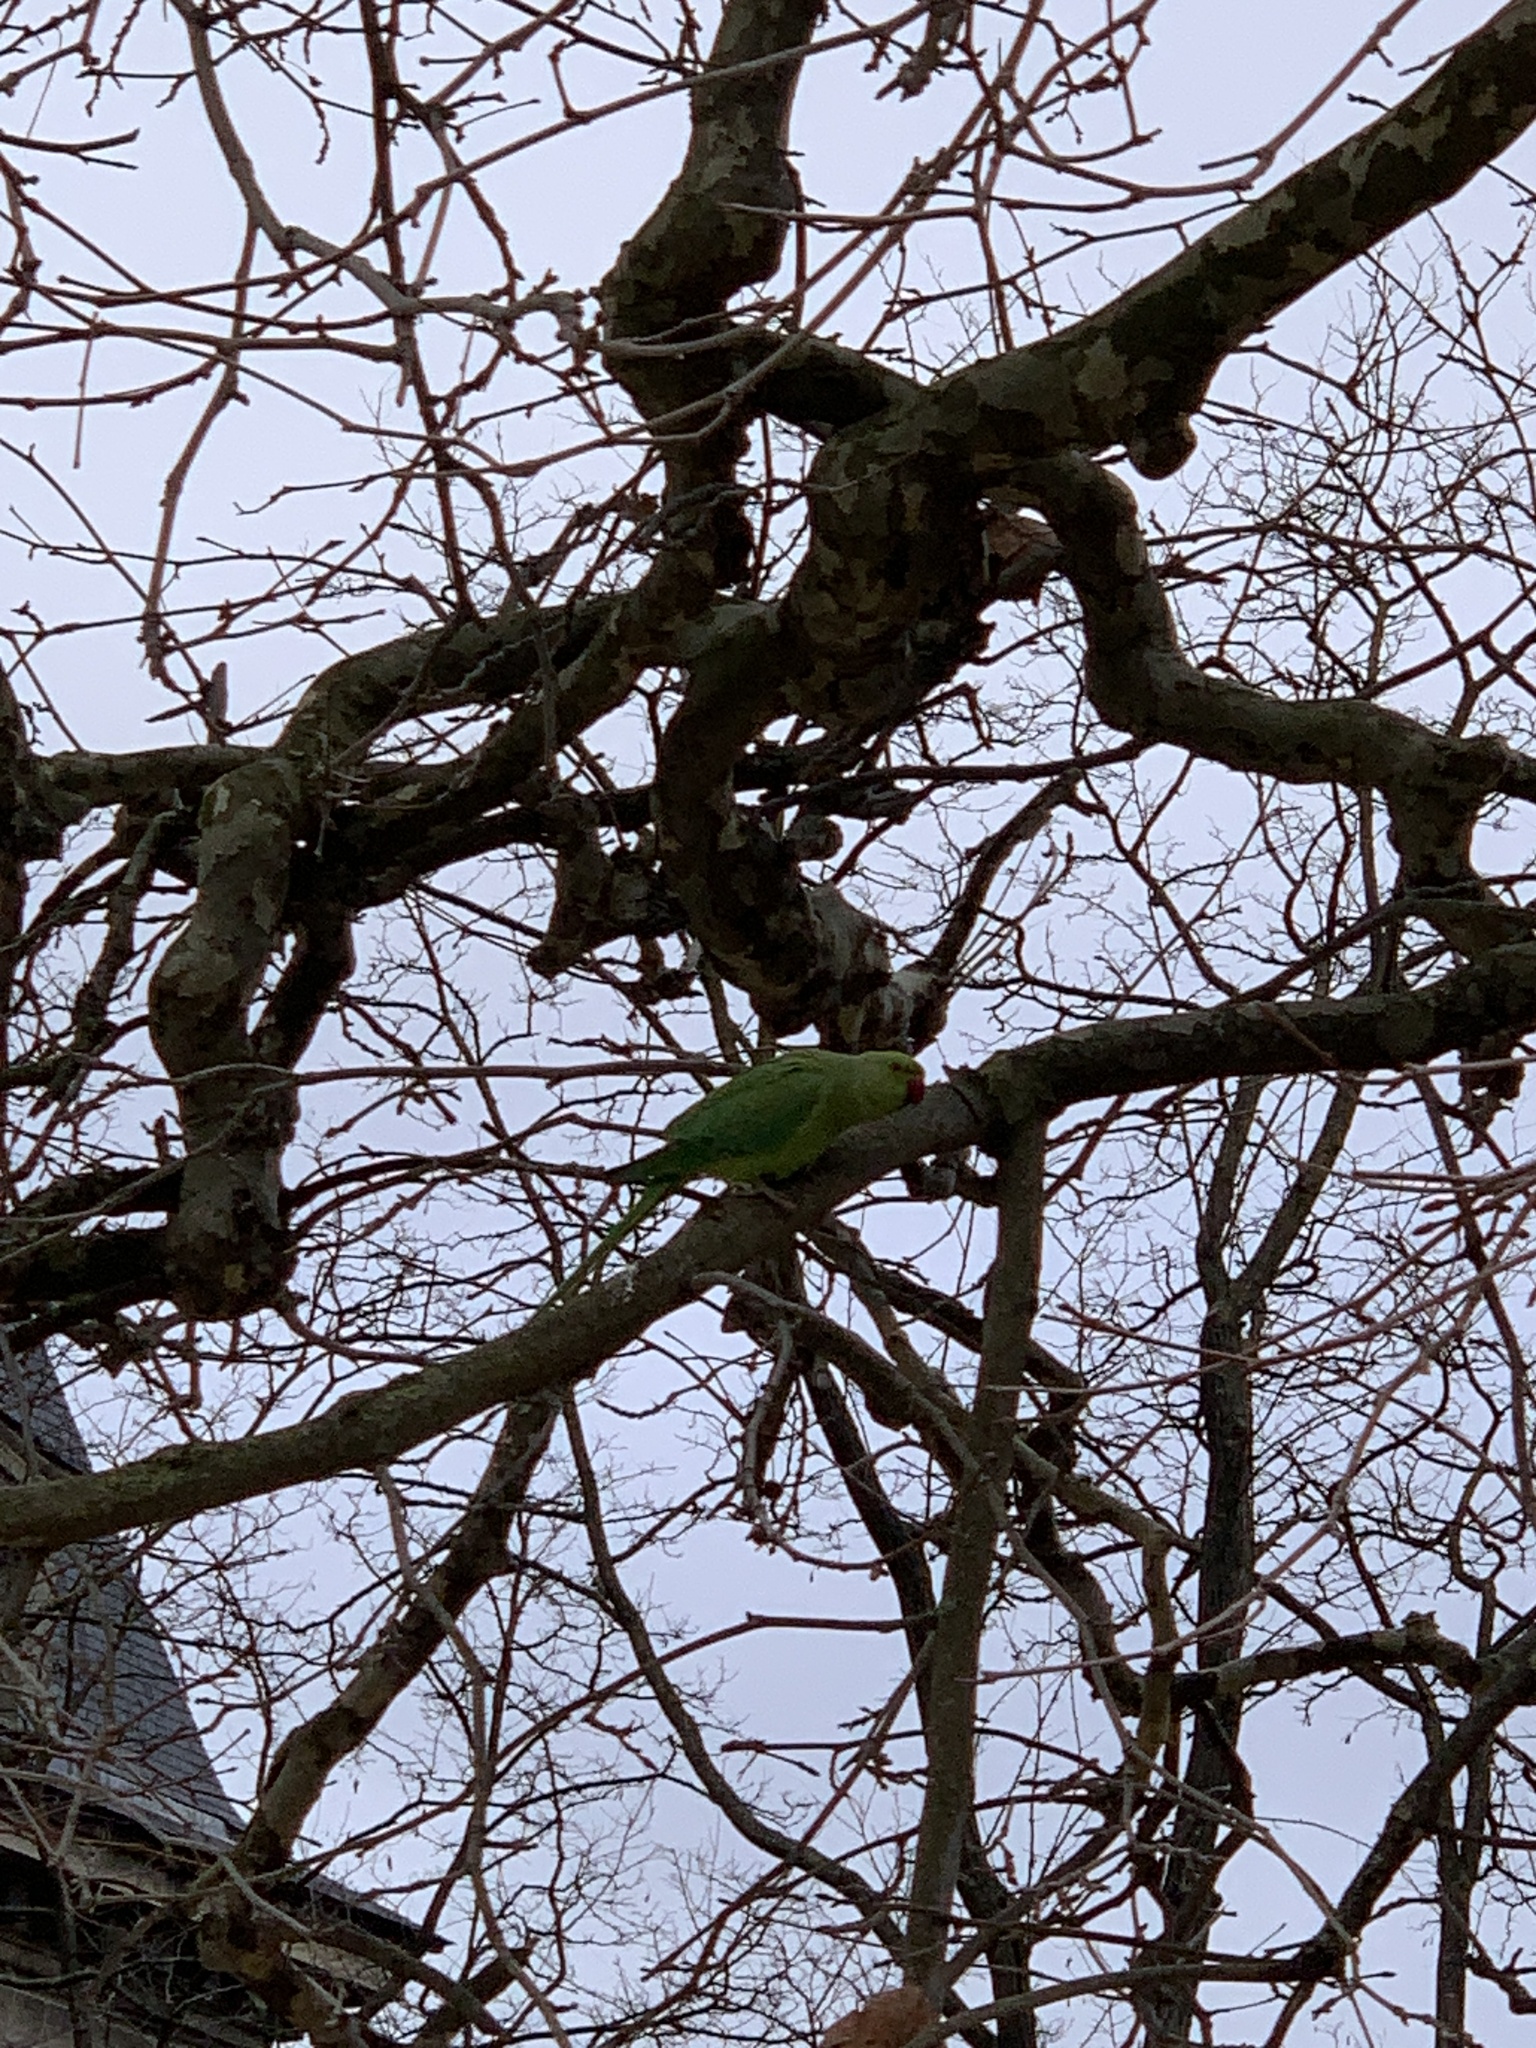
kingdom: Animalia
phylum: Chordata
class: Aves
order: Psittaciformes
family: Psittacidae
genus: Psittacula
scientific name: Psittacula krameri
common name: Rose-ringed parakeet
